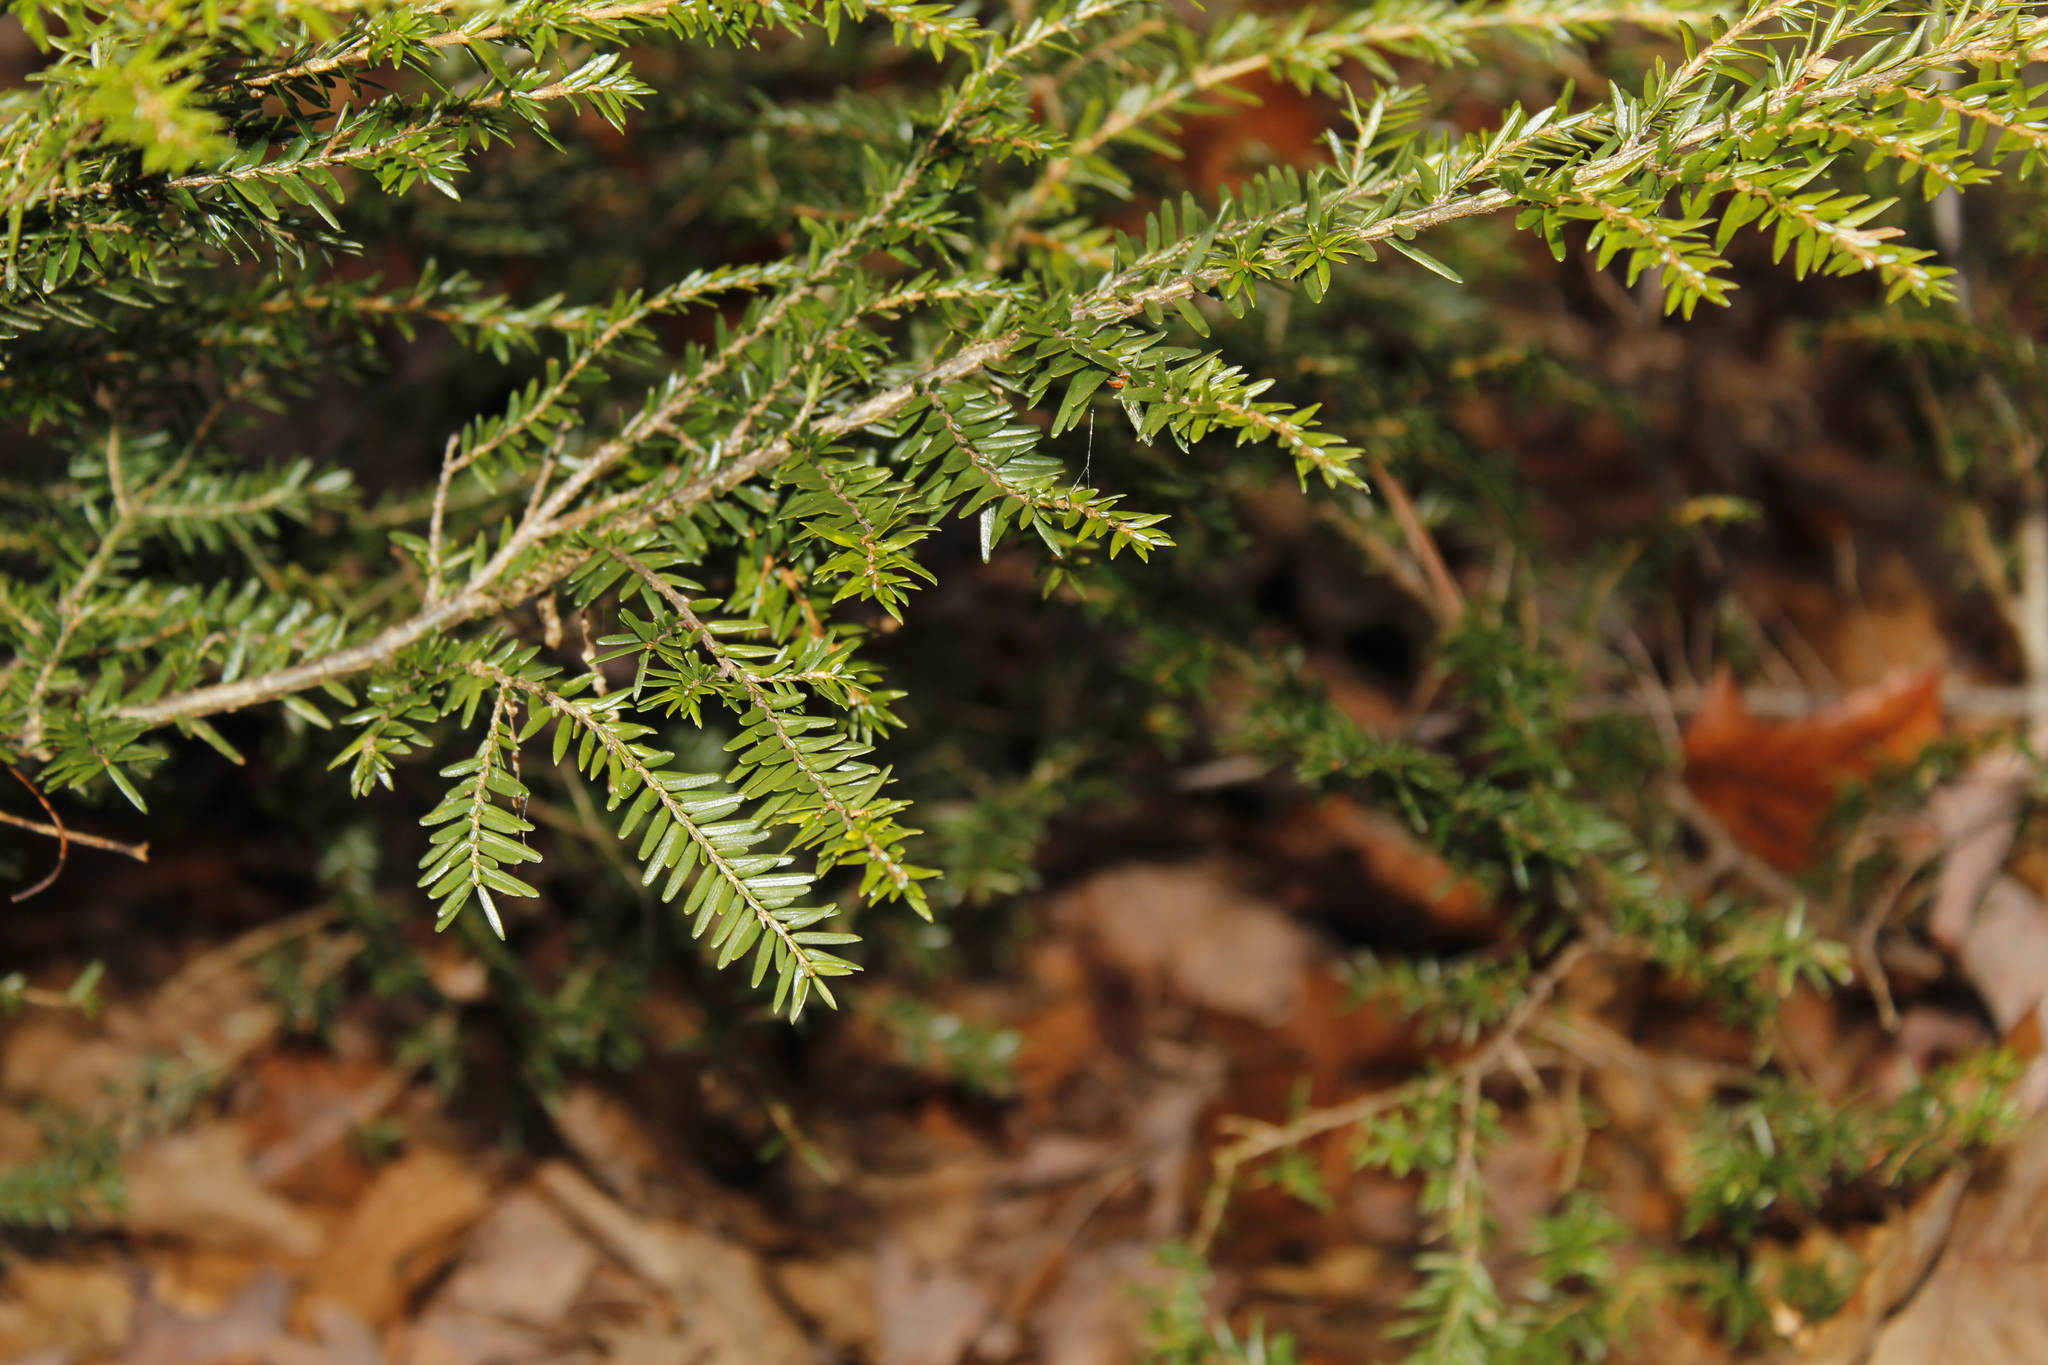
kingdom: Plantae
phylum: Tracheophyta
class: Pinopsida
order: Pinales
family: Pinaceae
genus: Tsuga
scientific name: Tsuga canadensis
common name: Eastern hemlock
